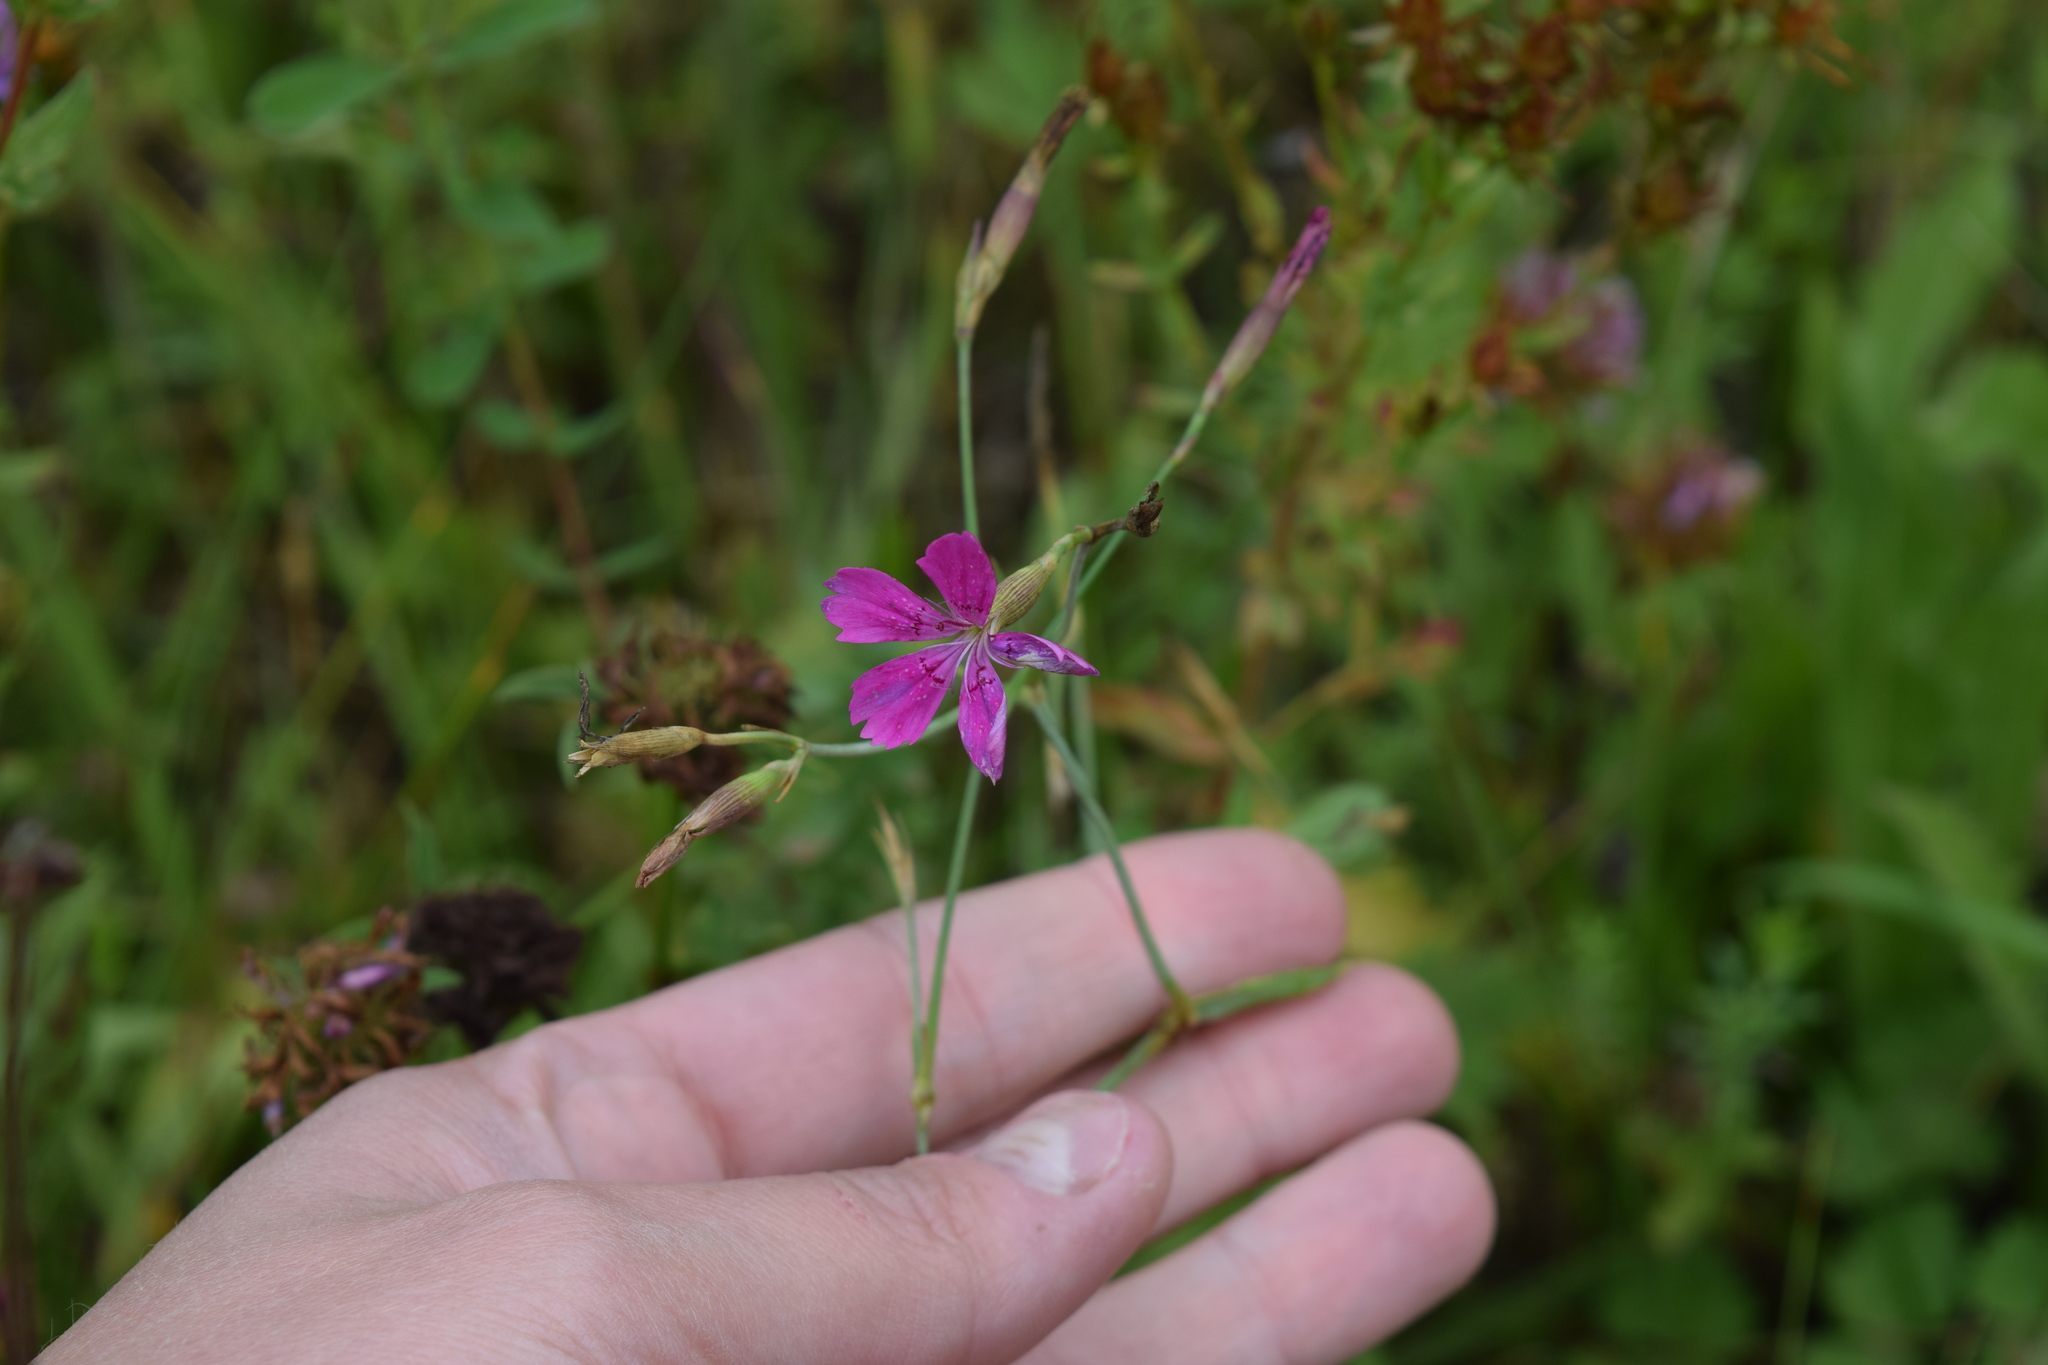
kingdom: Plantae
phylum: Tracheophyta
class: Magnoliopsida
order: Caryophyllales
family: Caryophyllaceae
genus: Dianthus
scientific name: Dianthus deltoides
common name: Maiden pink
